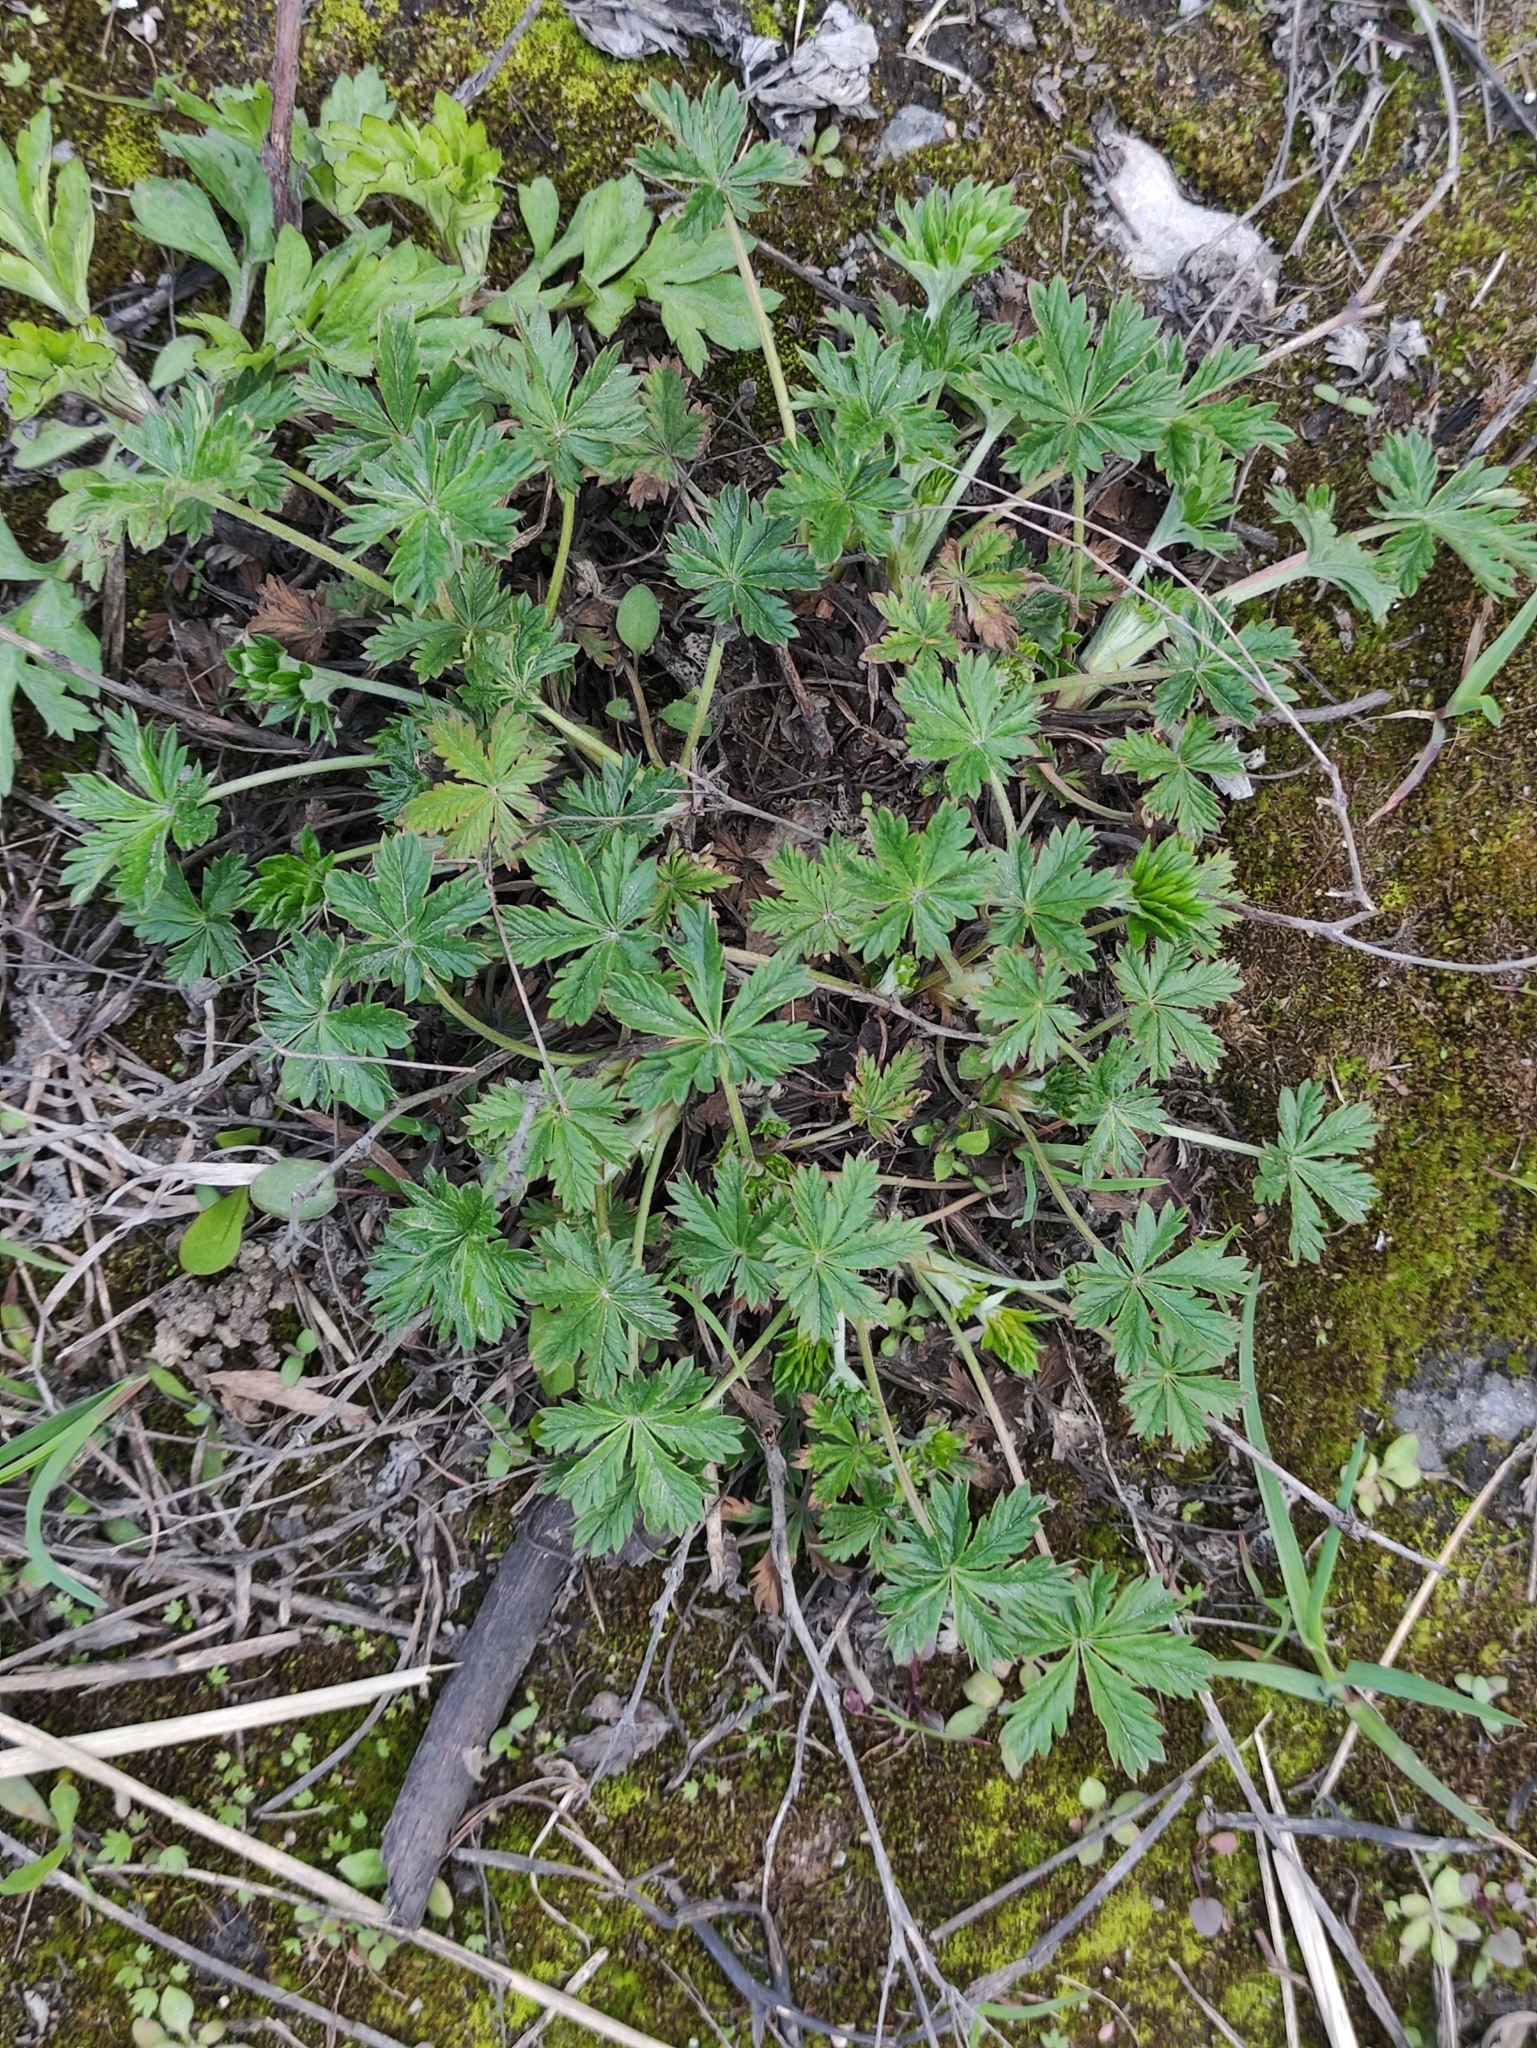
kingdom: Plantae
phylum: Tracheophyta
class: Magnoliopsida
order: Rosales
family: Rosaceae
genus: Potentilla
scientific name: Potentilla argentea
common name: Hoary cinquefoil
